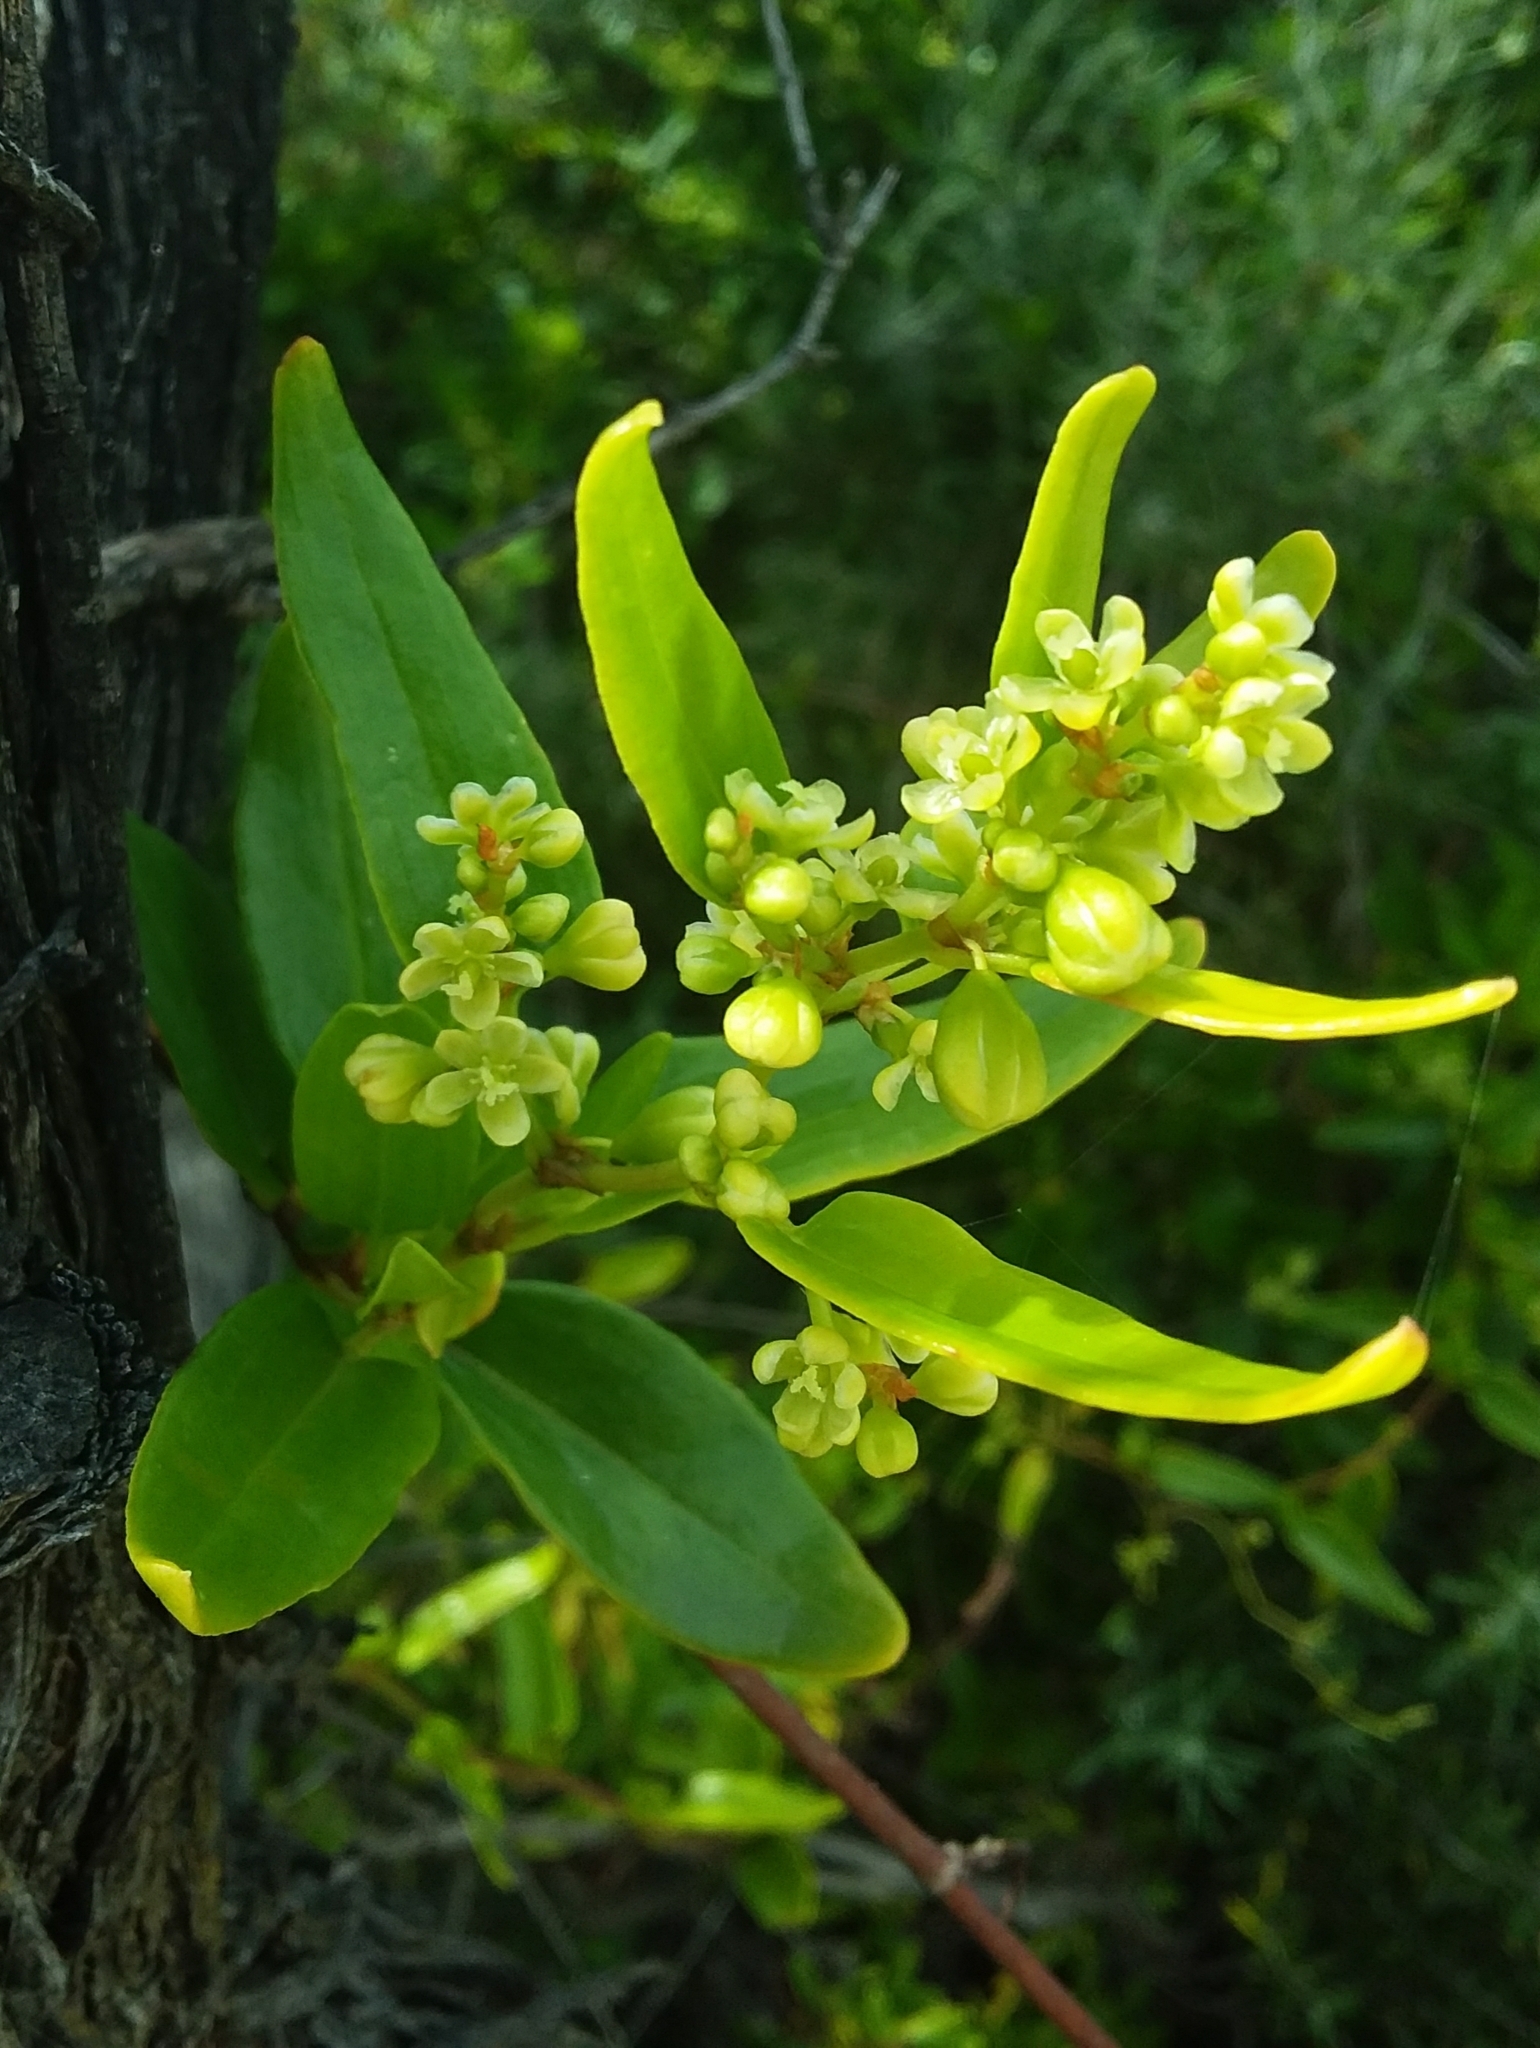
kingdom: Plantae
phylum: Tracheophyta
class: Magnoliopsida
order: Caryophyllales
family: Polygonaceae
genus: Muehlenbeckia
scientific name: Muehlenbeckia gunnii
